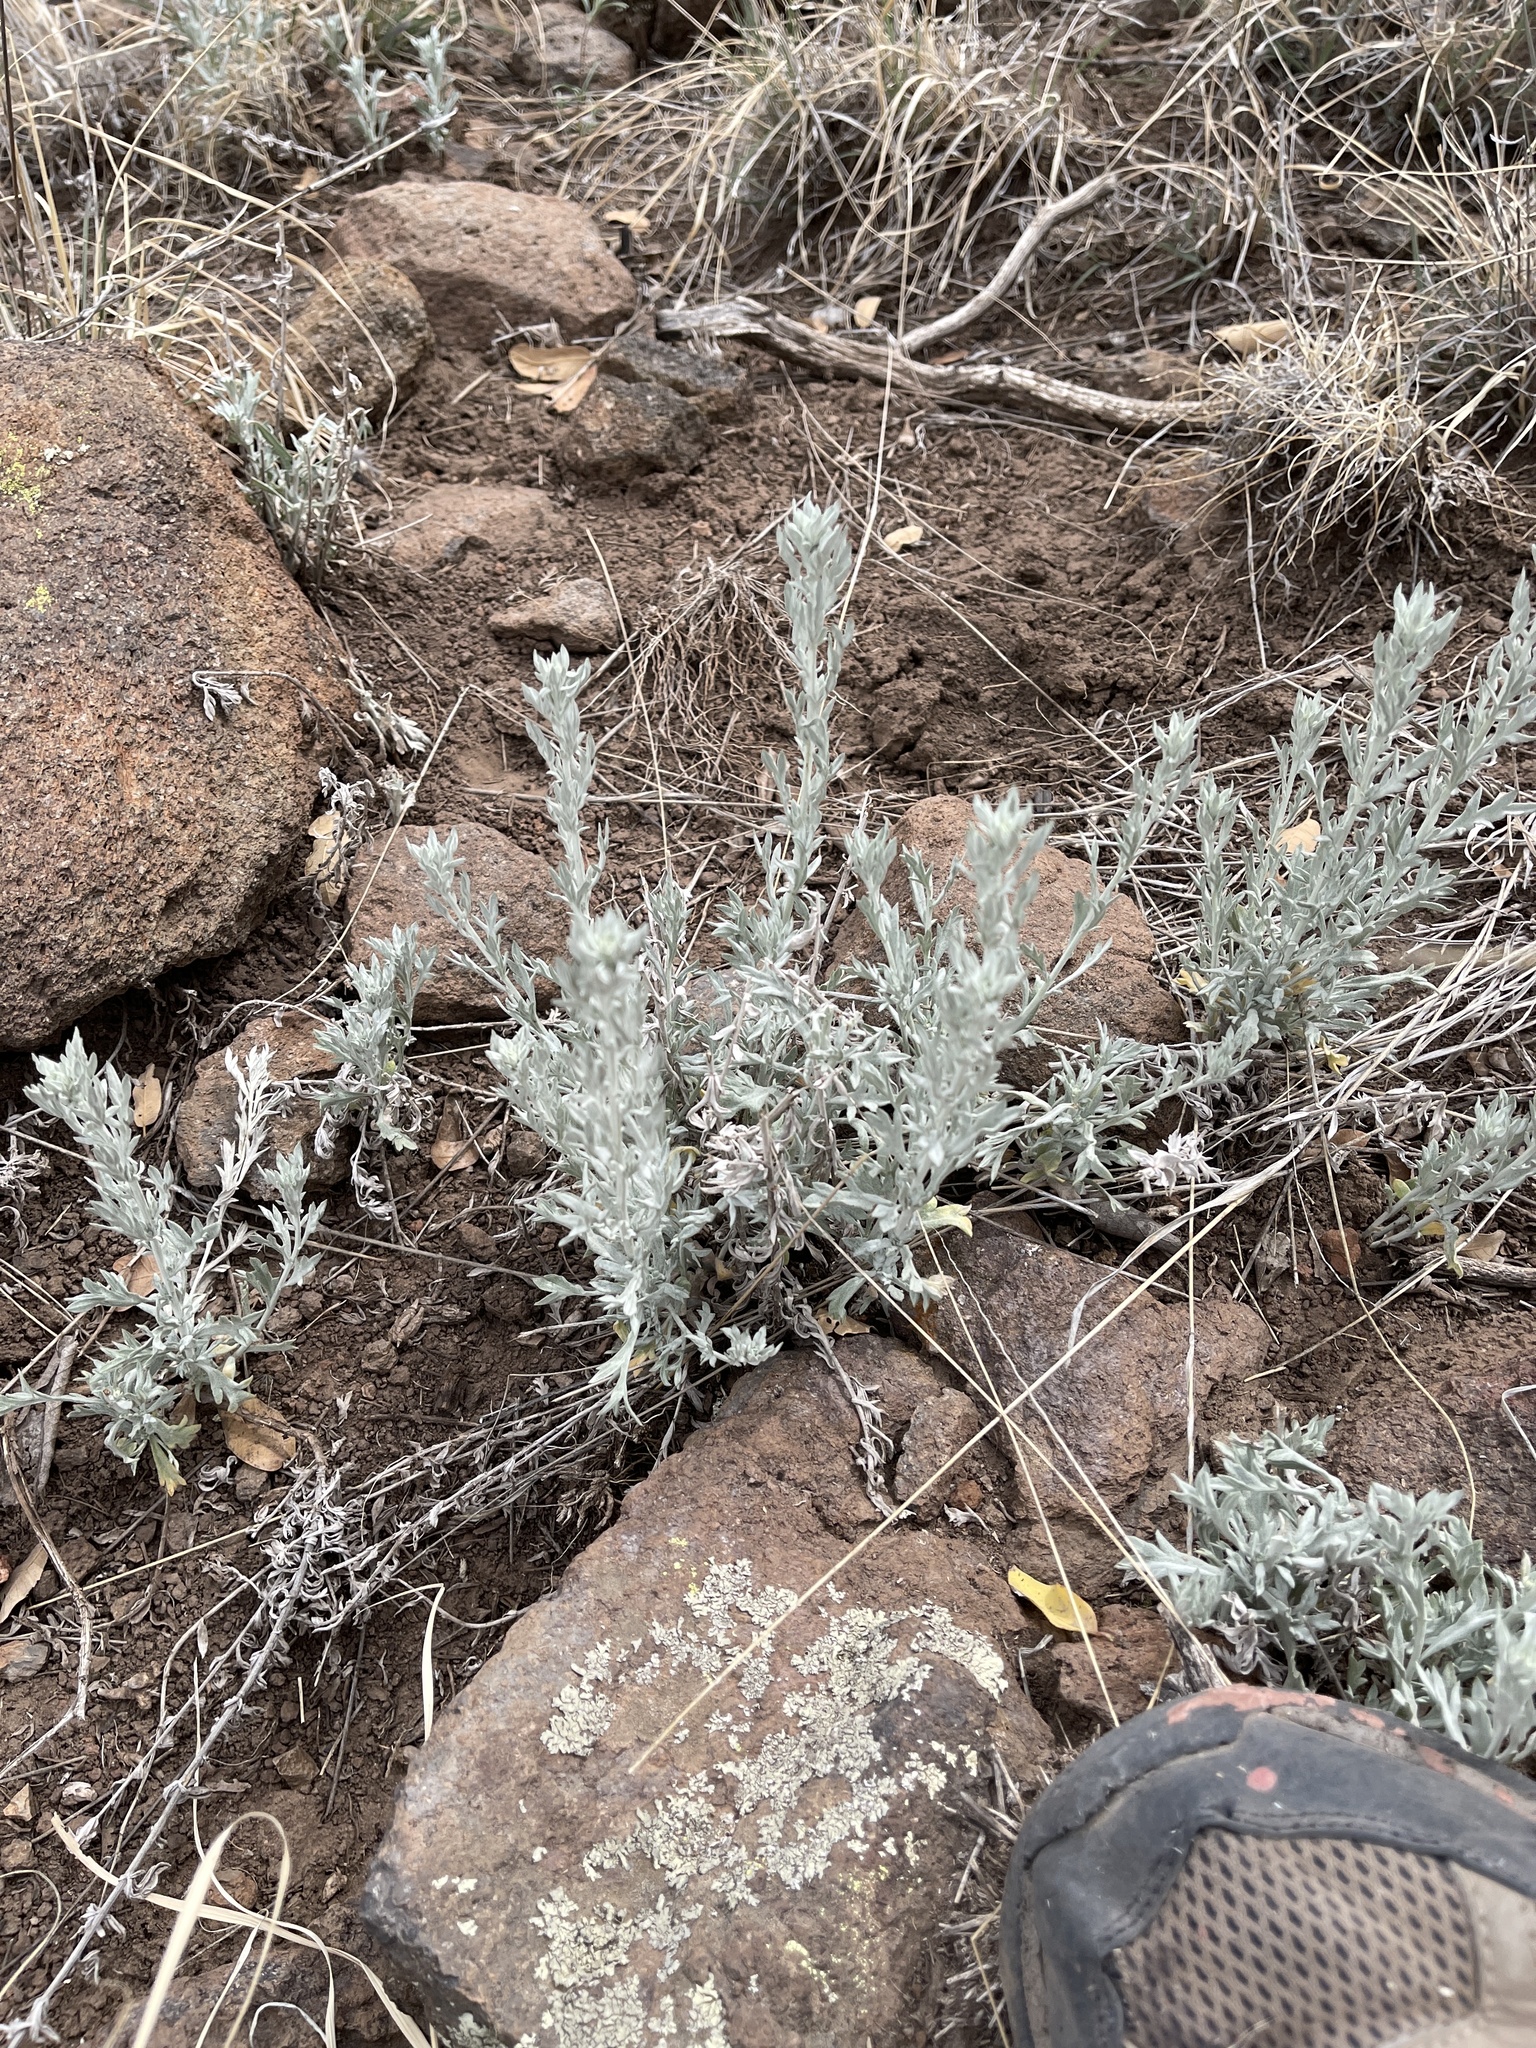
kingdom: Plantae
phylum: Tracheophyta
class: Magnoliopsida
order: Asterales
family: Asteraceae
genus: Artemisia
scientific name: Artemisia ludoviciana
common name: Western mugwort
